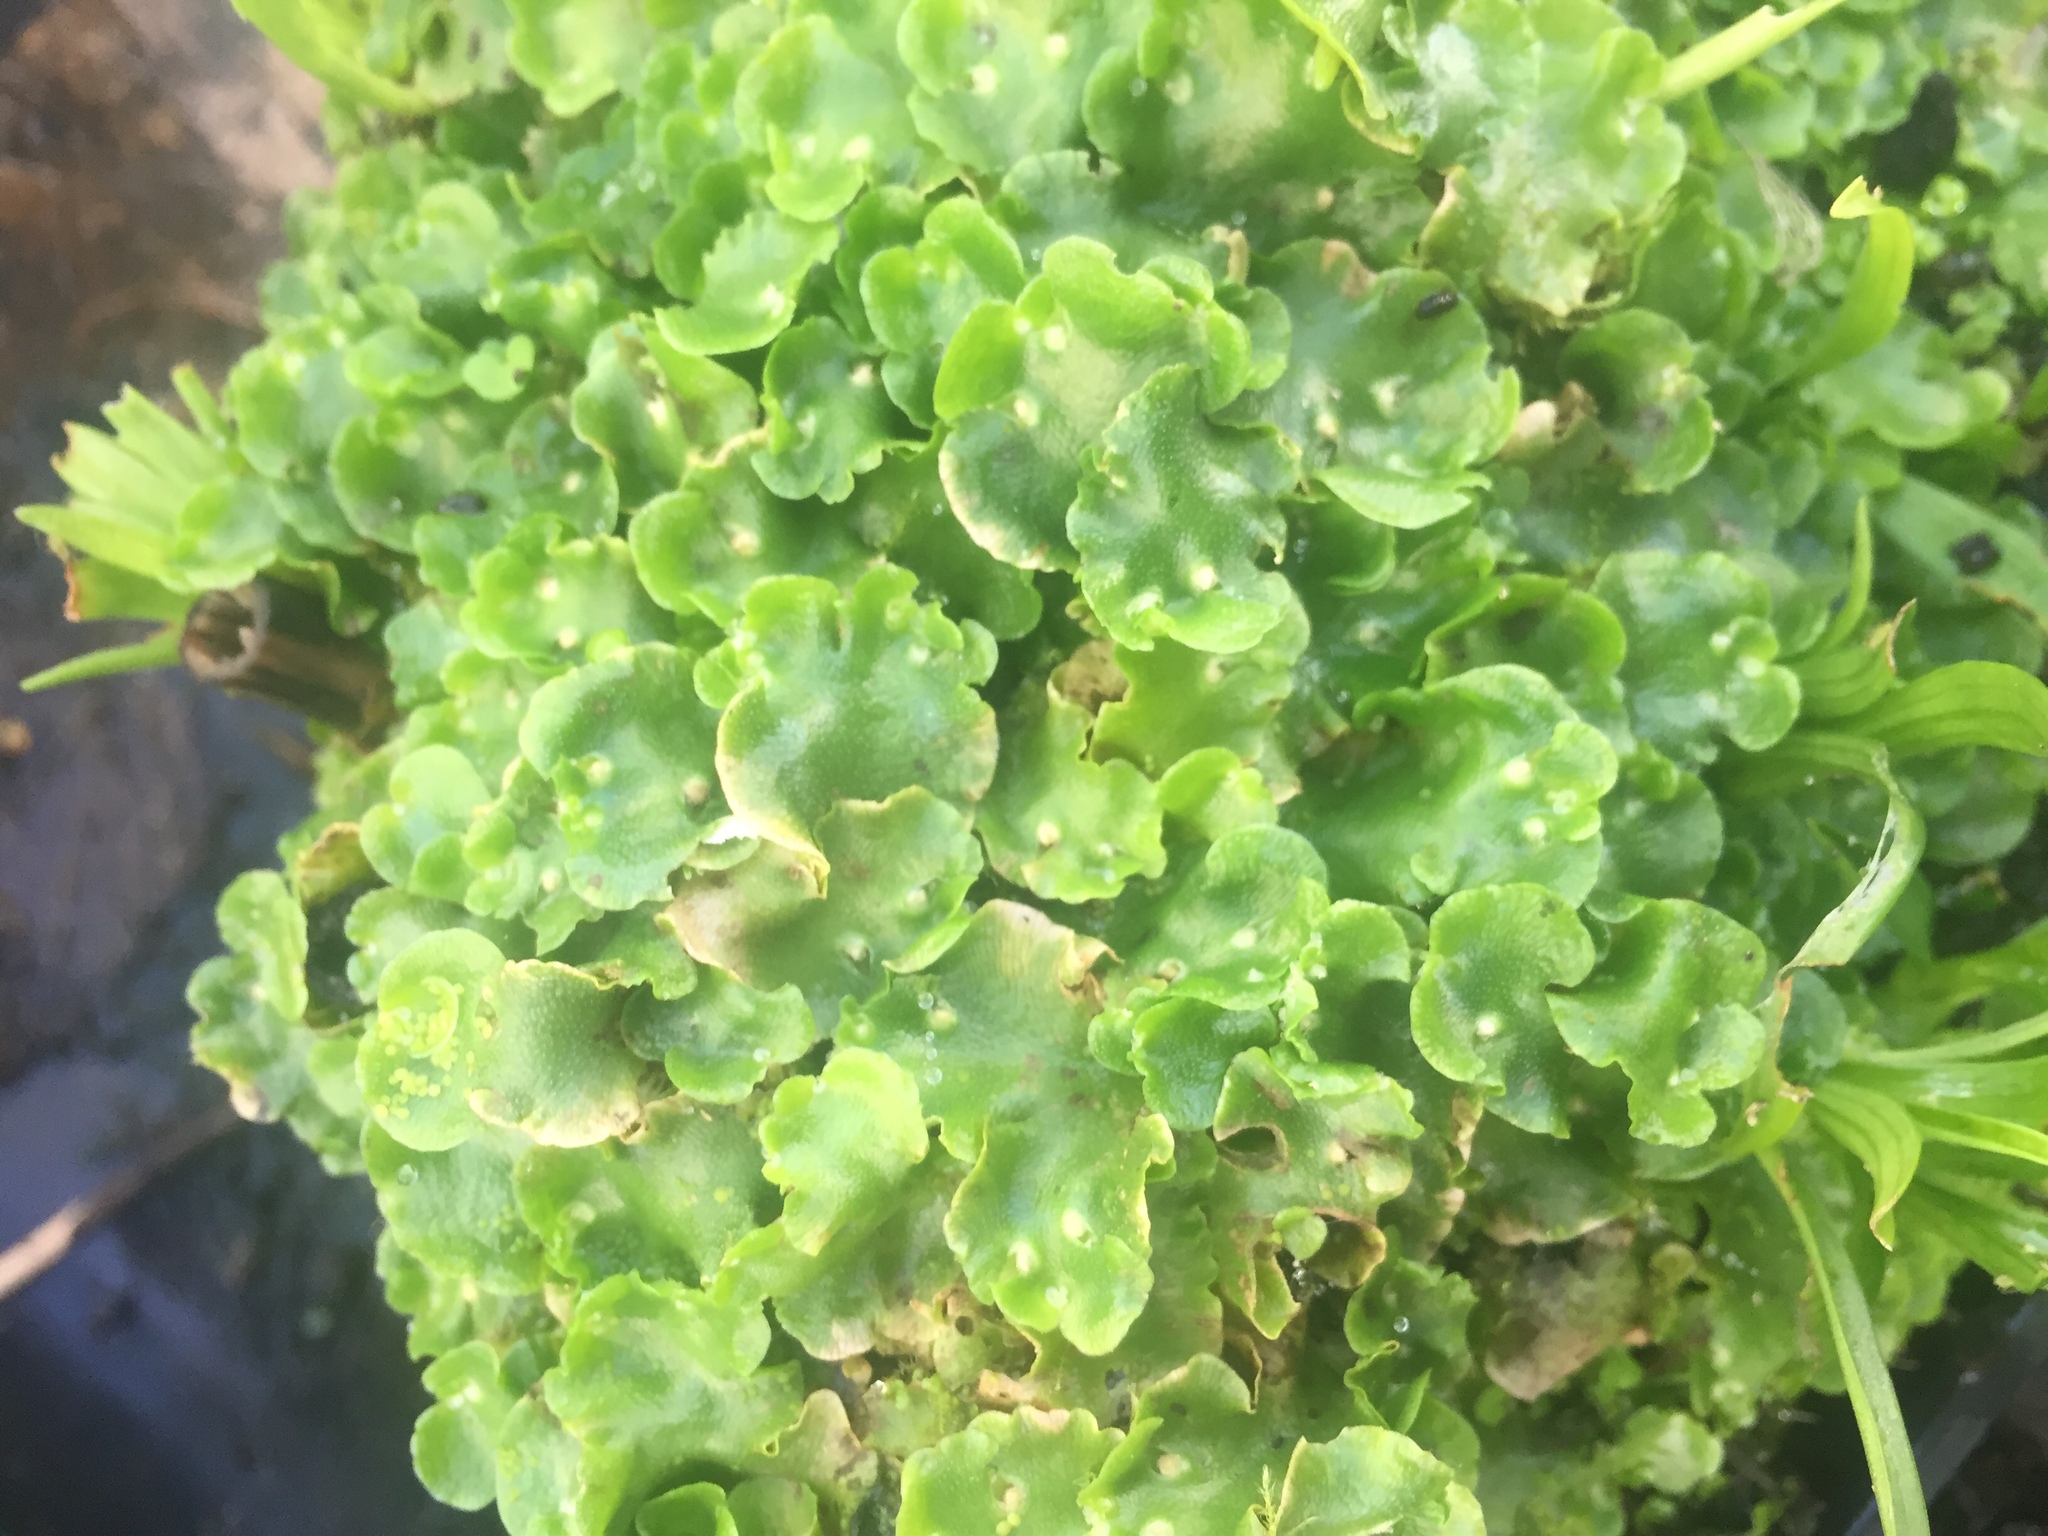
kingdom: Plantae
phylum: Marchantiophyta
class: Marchantiopsida
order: Lunulariales
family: Lunulariaceae
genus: Lunularia
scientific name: Lunularia cruciata
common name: Crescent-cup liverwort
